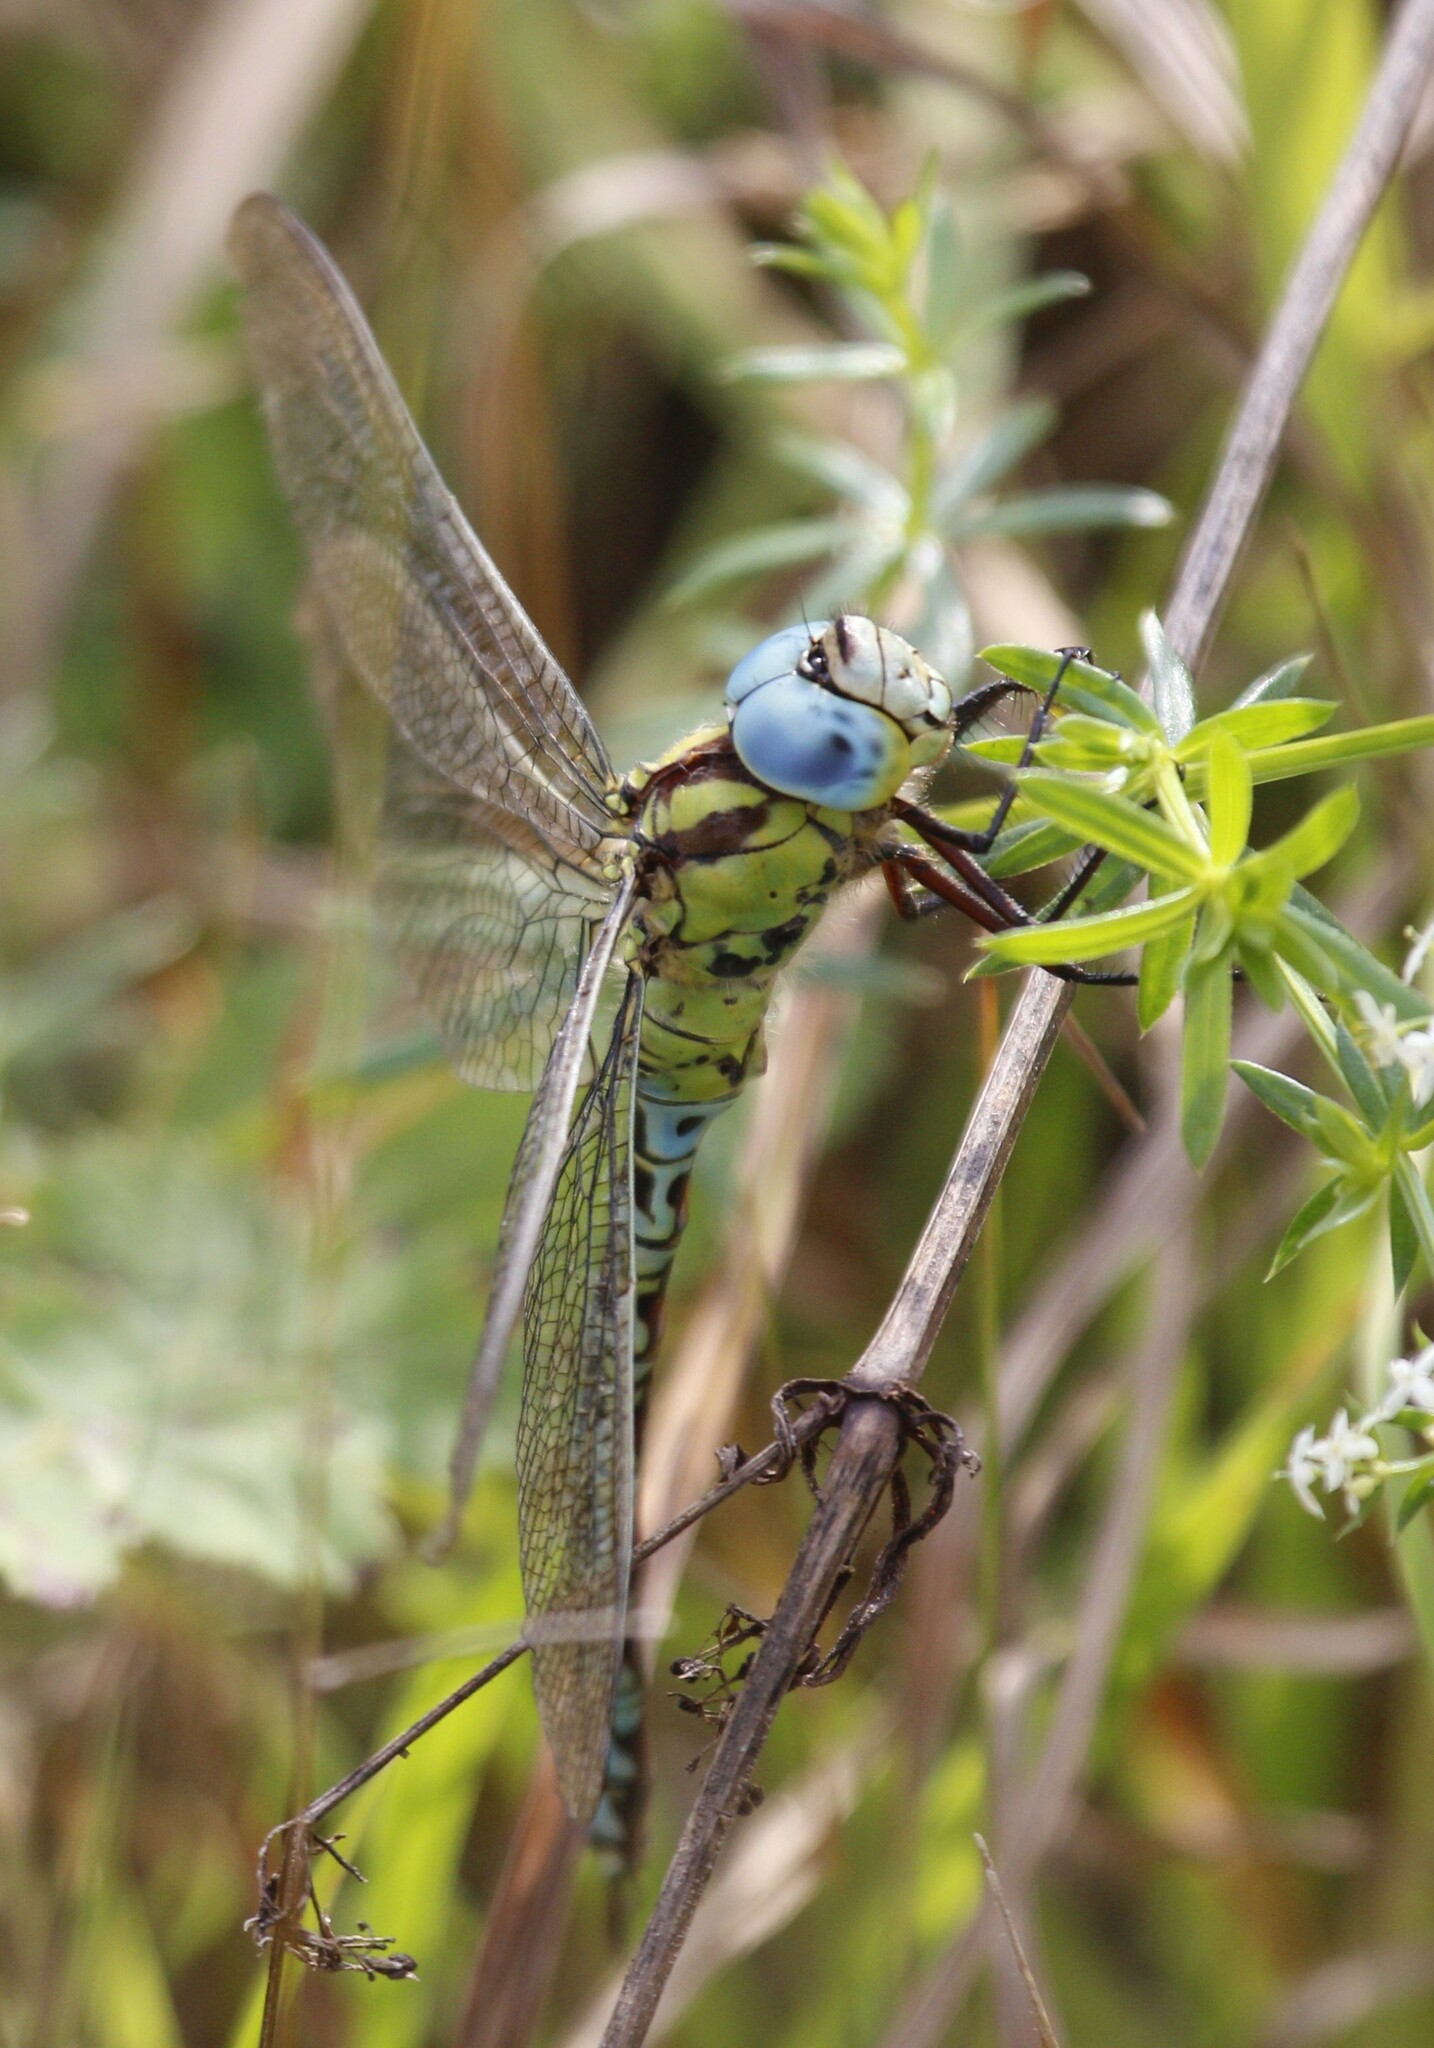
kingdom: Animalia
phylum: Arthropoda
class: Insecta
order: Odonata
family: Aeshnidae
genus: Aeshna
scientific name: Aeshna viridis
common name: Green hawker
